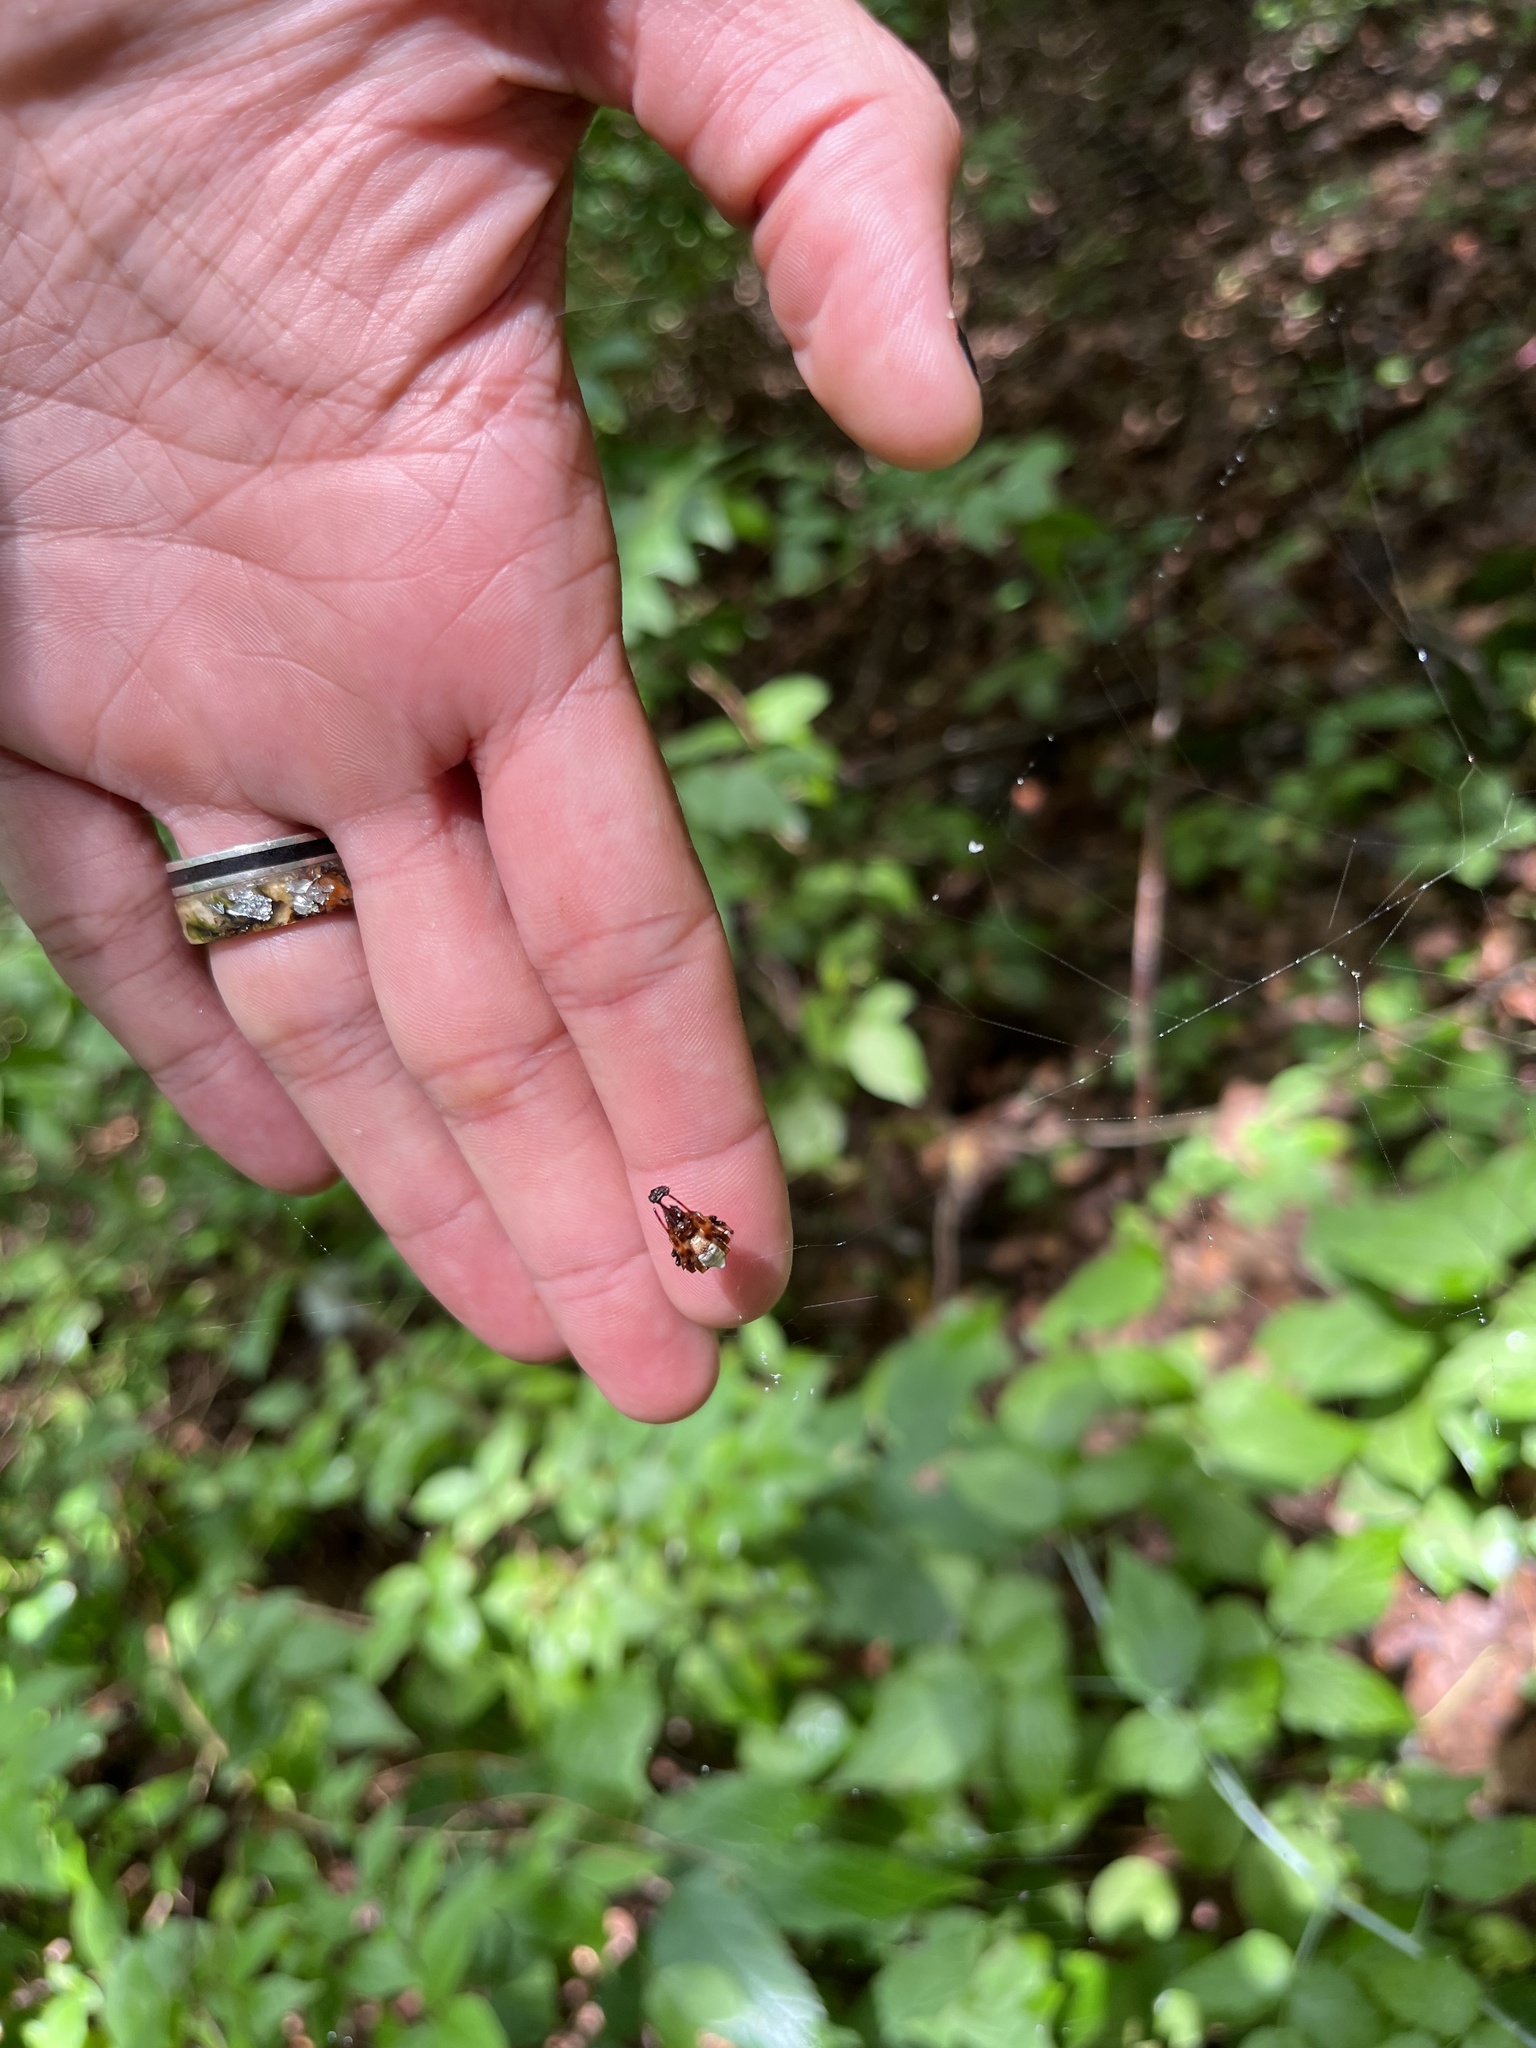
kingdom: Animalia
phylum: Arthropoda
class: Arachnida
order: Araneae
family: Araneidae
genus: Verrucosa
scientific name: Verrucosa arenata
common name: Orb weavers
